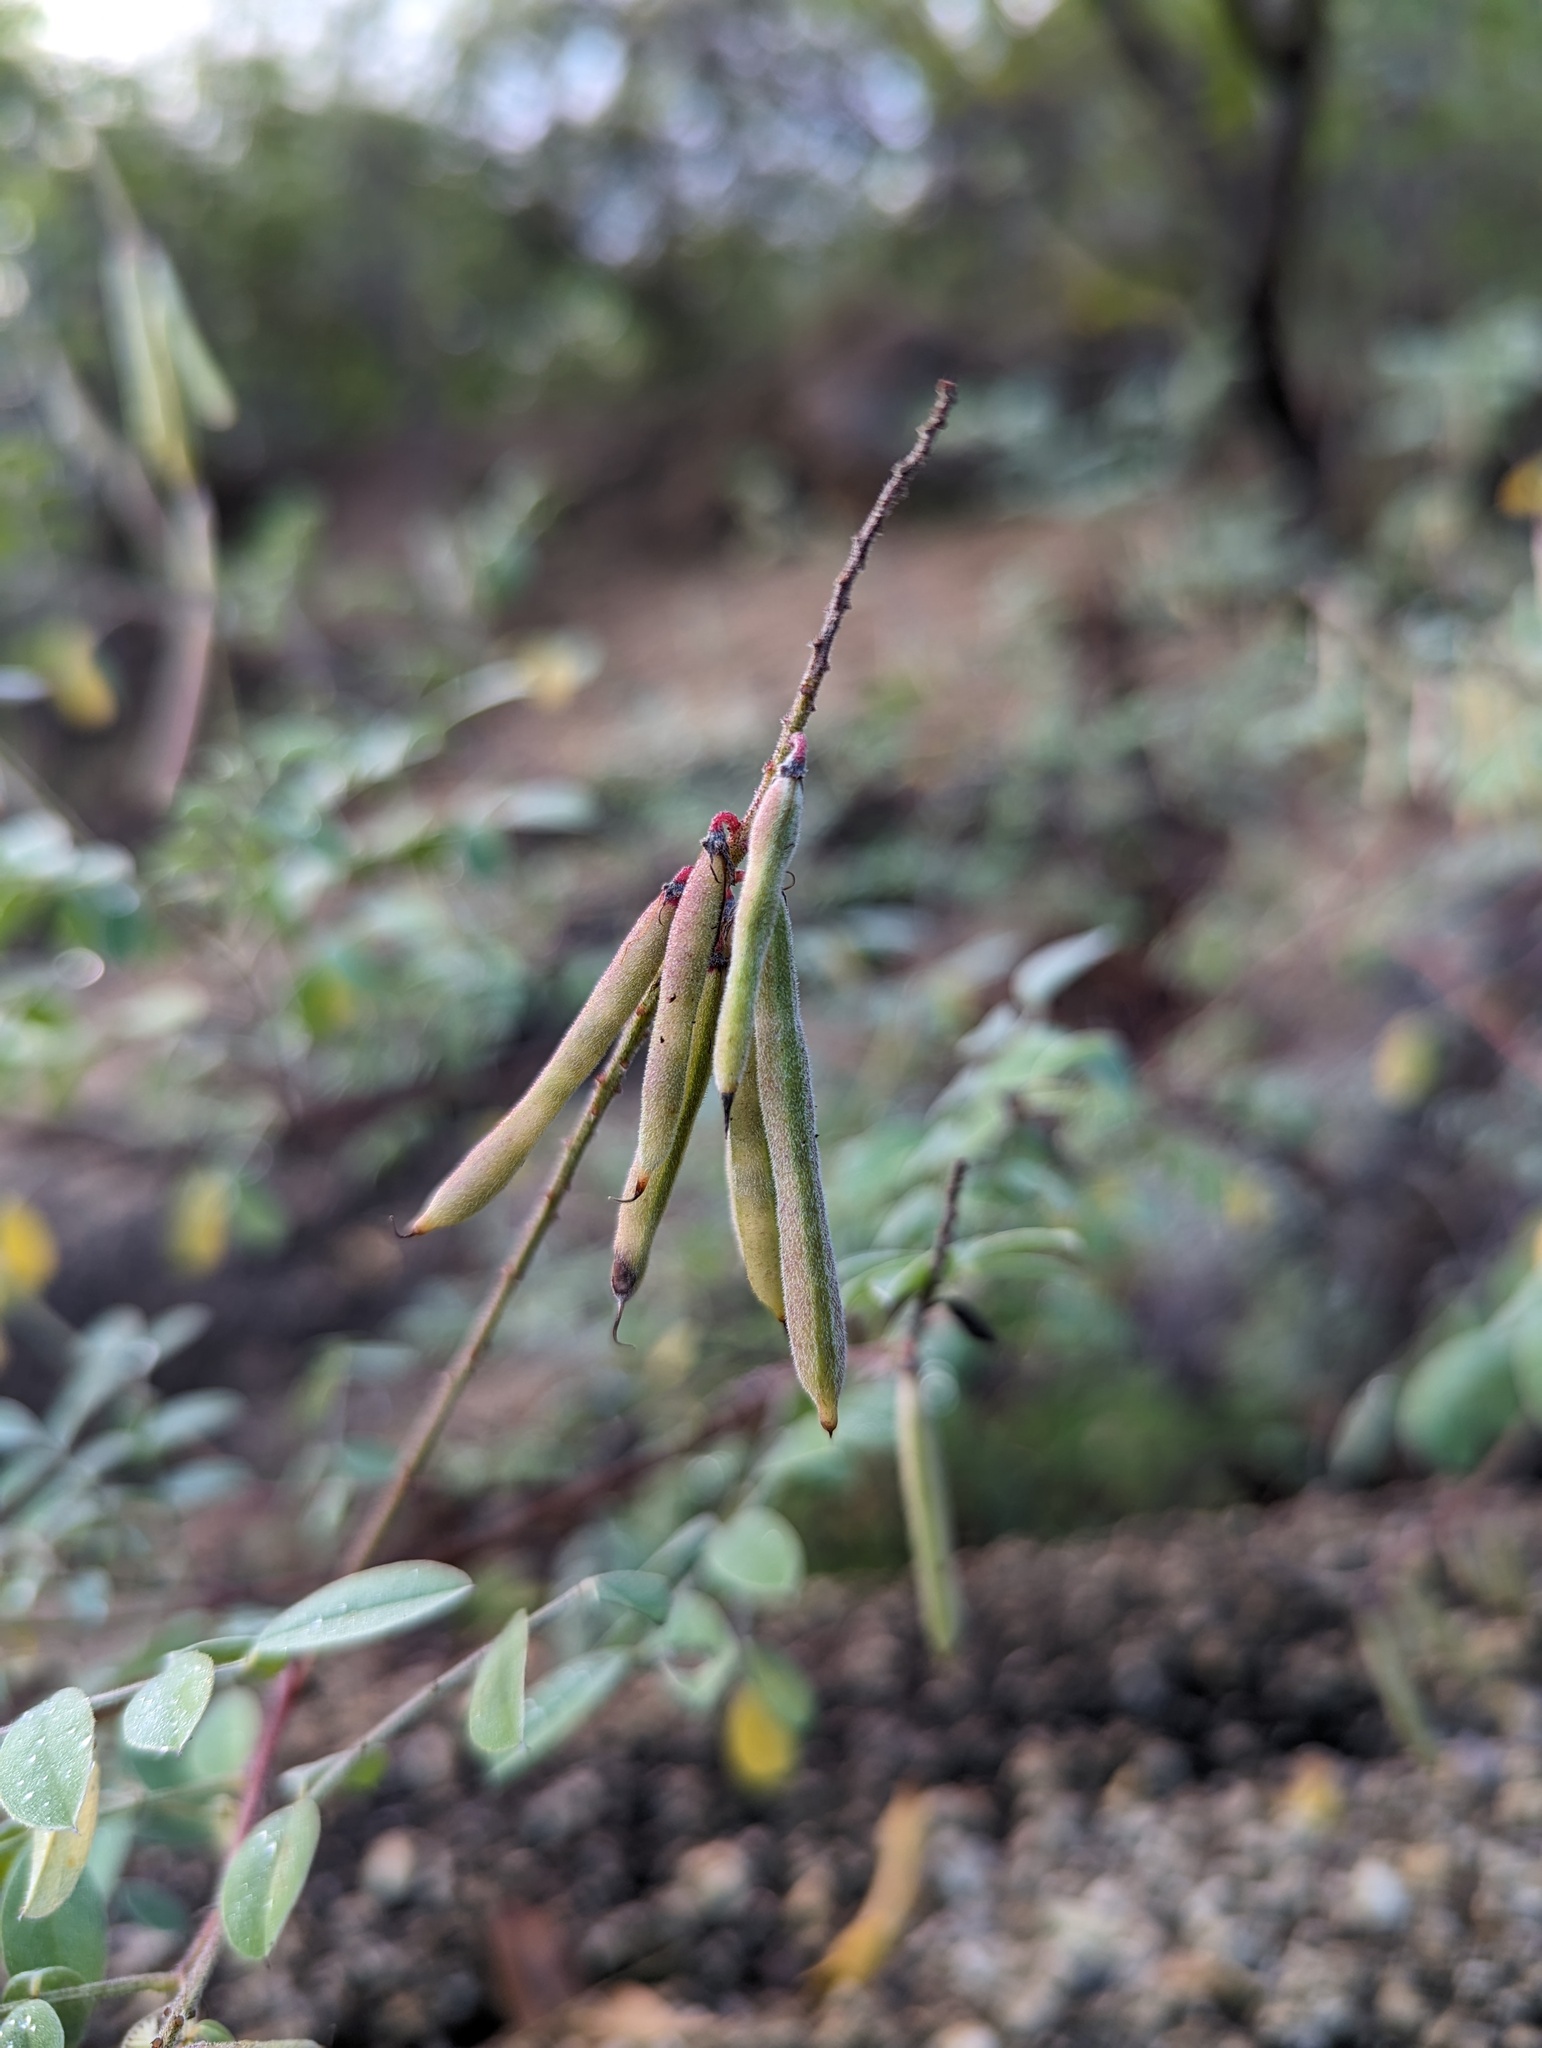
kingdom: Plantae
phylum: Tracheophyta
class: Magnoliopsida
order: Fabales
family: Fabaceae
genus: Indigofera
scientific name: Indigofera fruticosa
